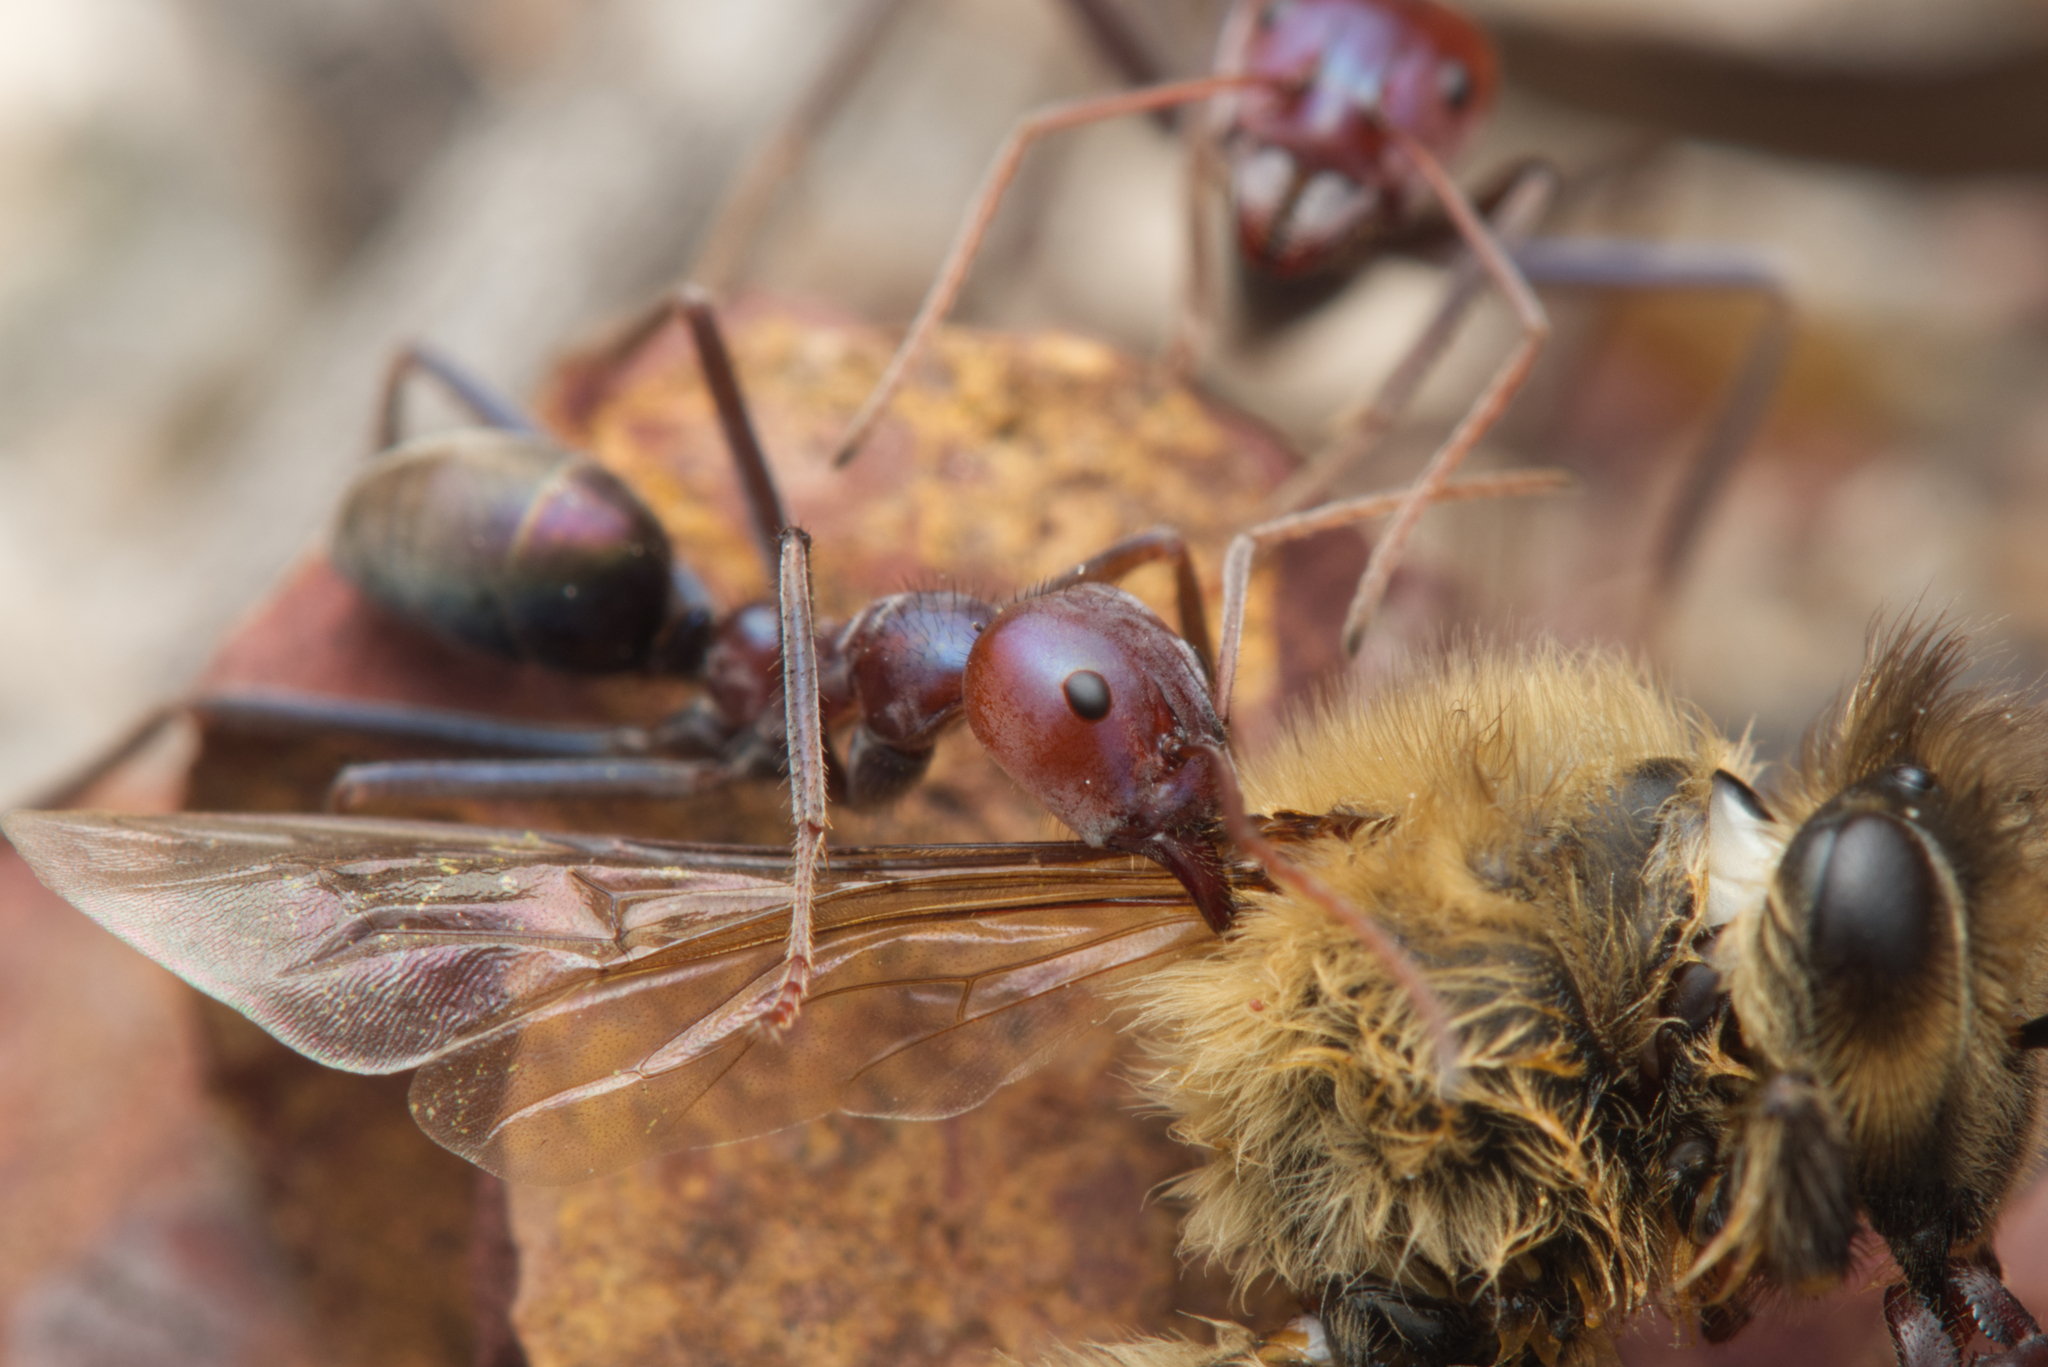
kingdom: Animalia
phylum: Arthropoda
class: Insecta
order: Hymenoptera
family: Formicidae
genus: Iridomyrmex
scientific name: Iridomyrmex purpureus
